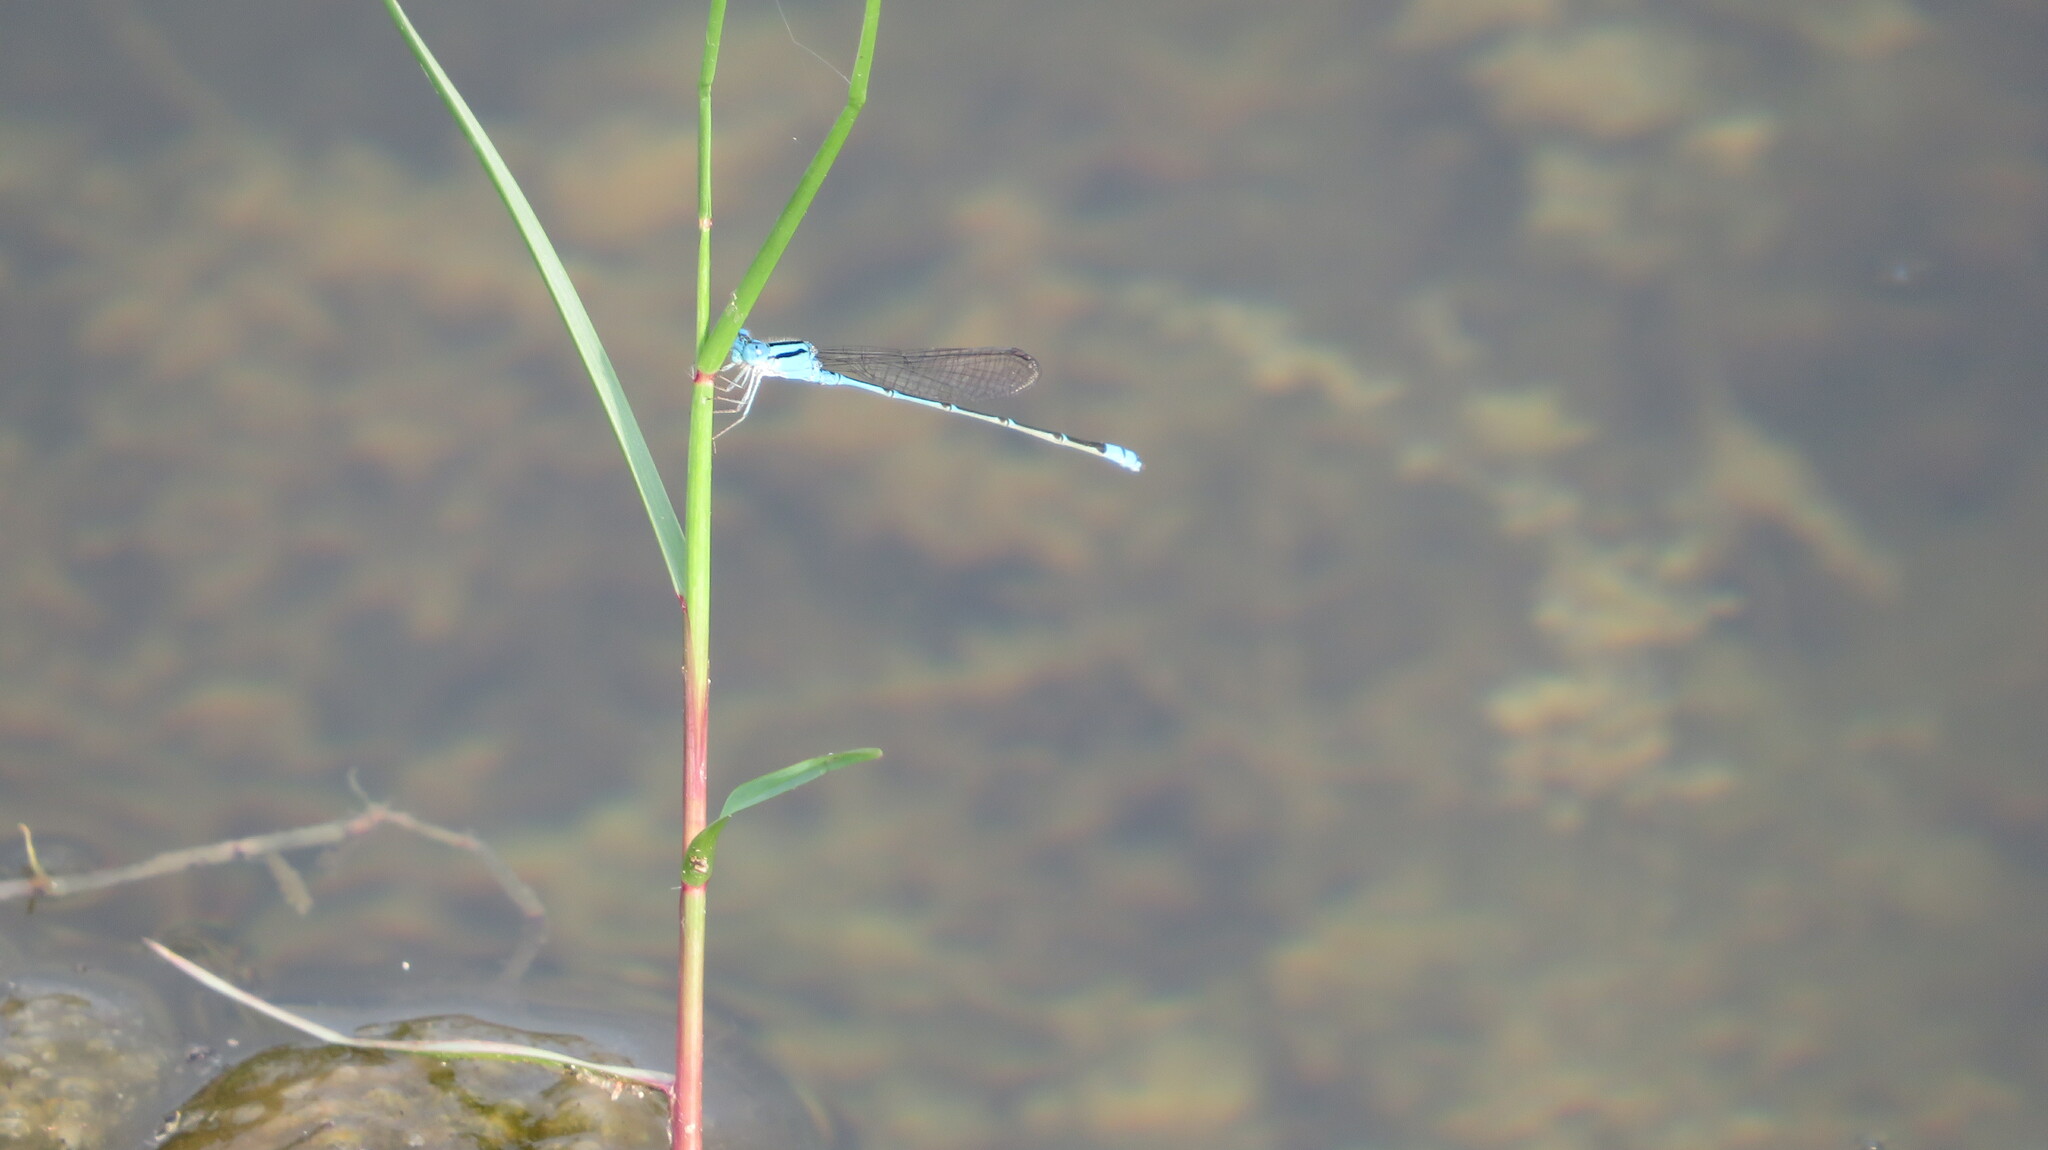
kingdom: Animalia
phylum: Arthropoda
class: Insecta
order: Odonata
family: Coenagrionidae
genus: Pseudagrion
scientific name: Pseudagrion microcephalum
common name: Blue riverdamsel
